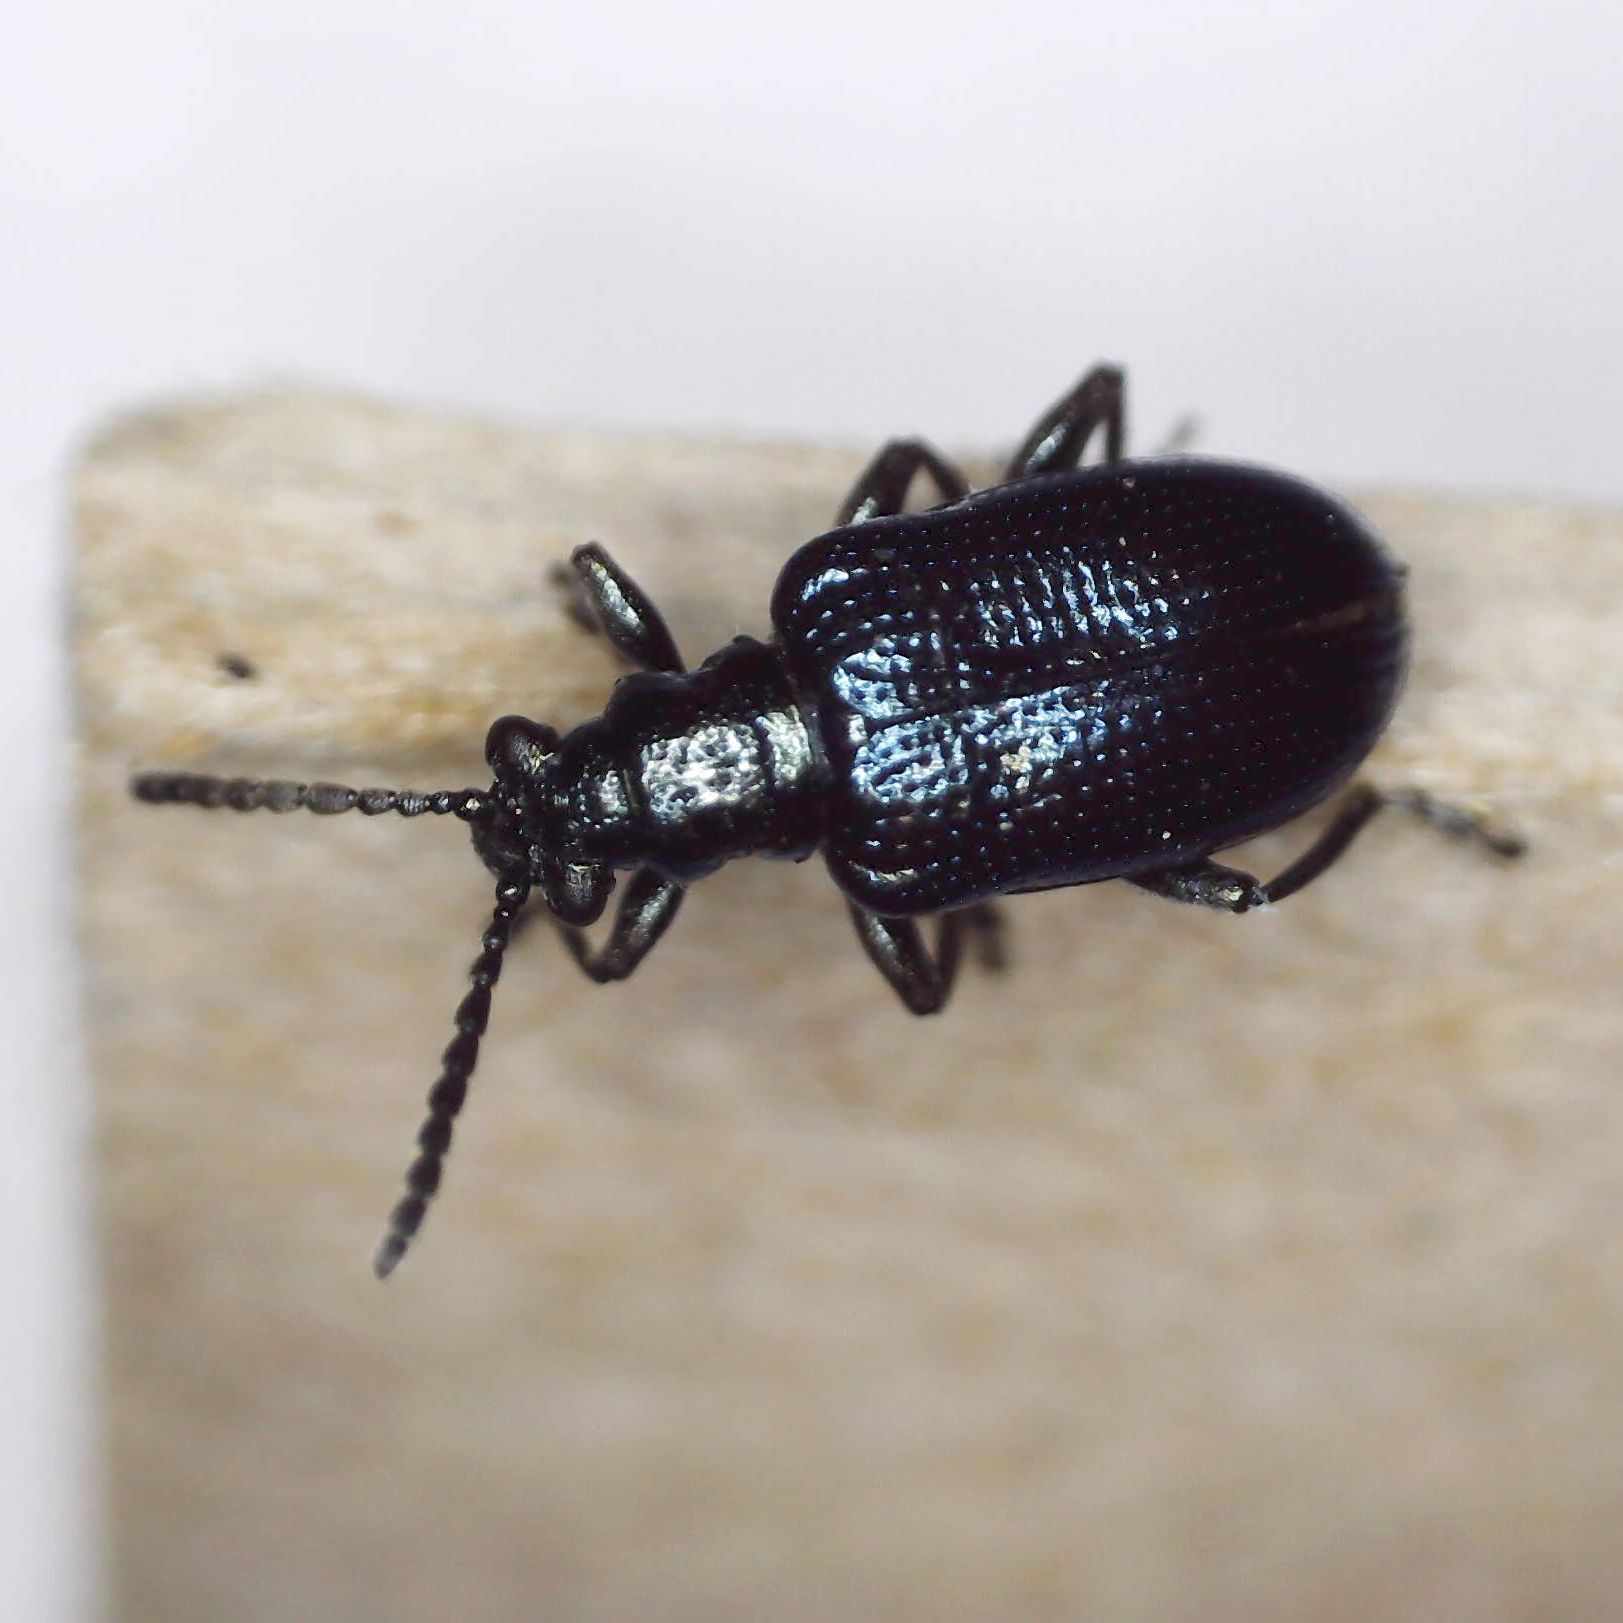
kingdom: Animalia
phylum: Arthropoda
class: Insecta
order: Coleoptera
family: Chrysomelidae
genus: Lema
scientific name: Lema cyanella
